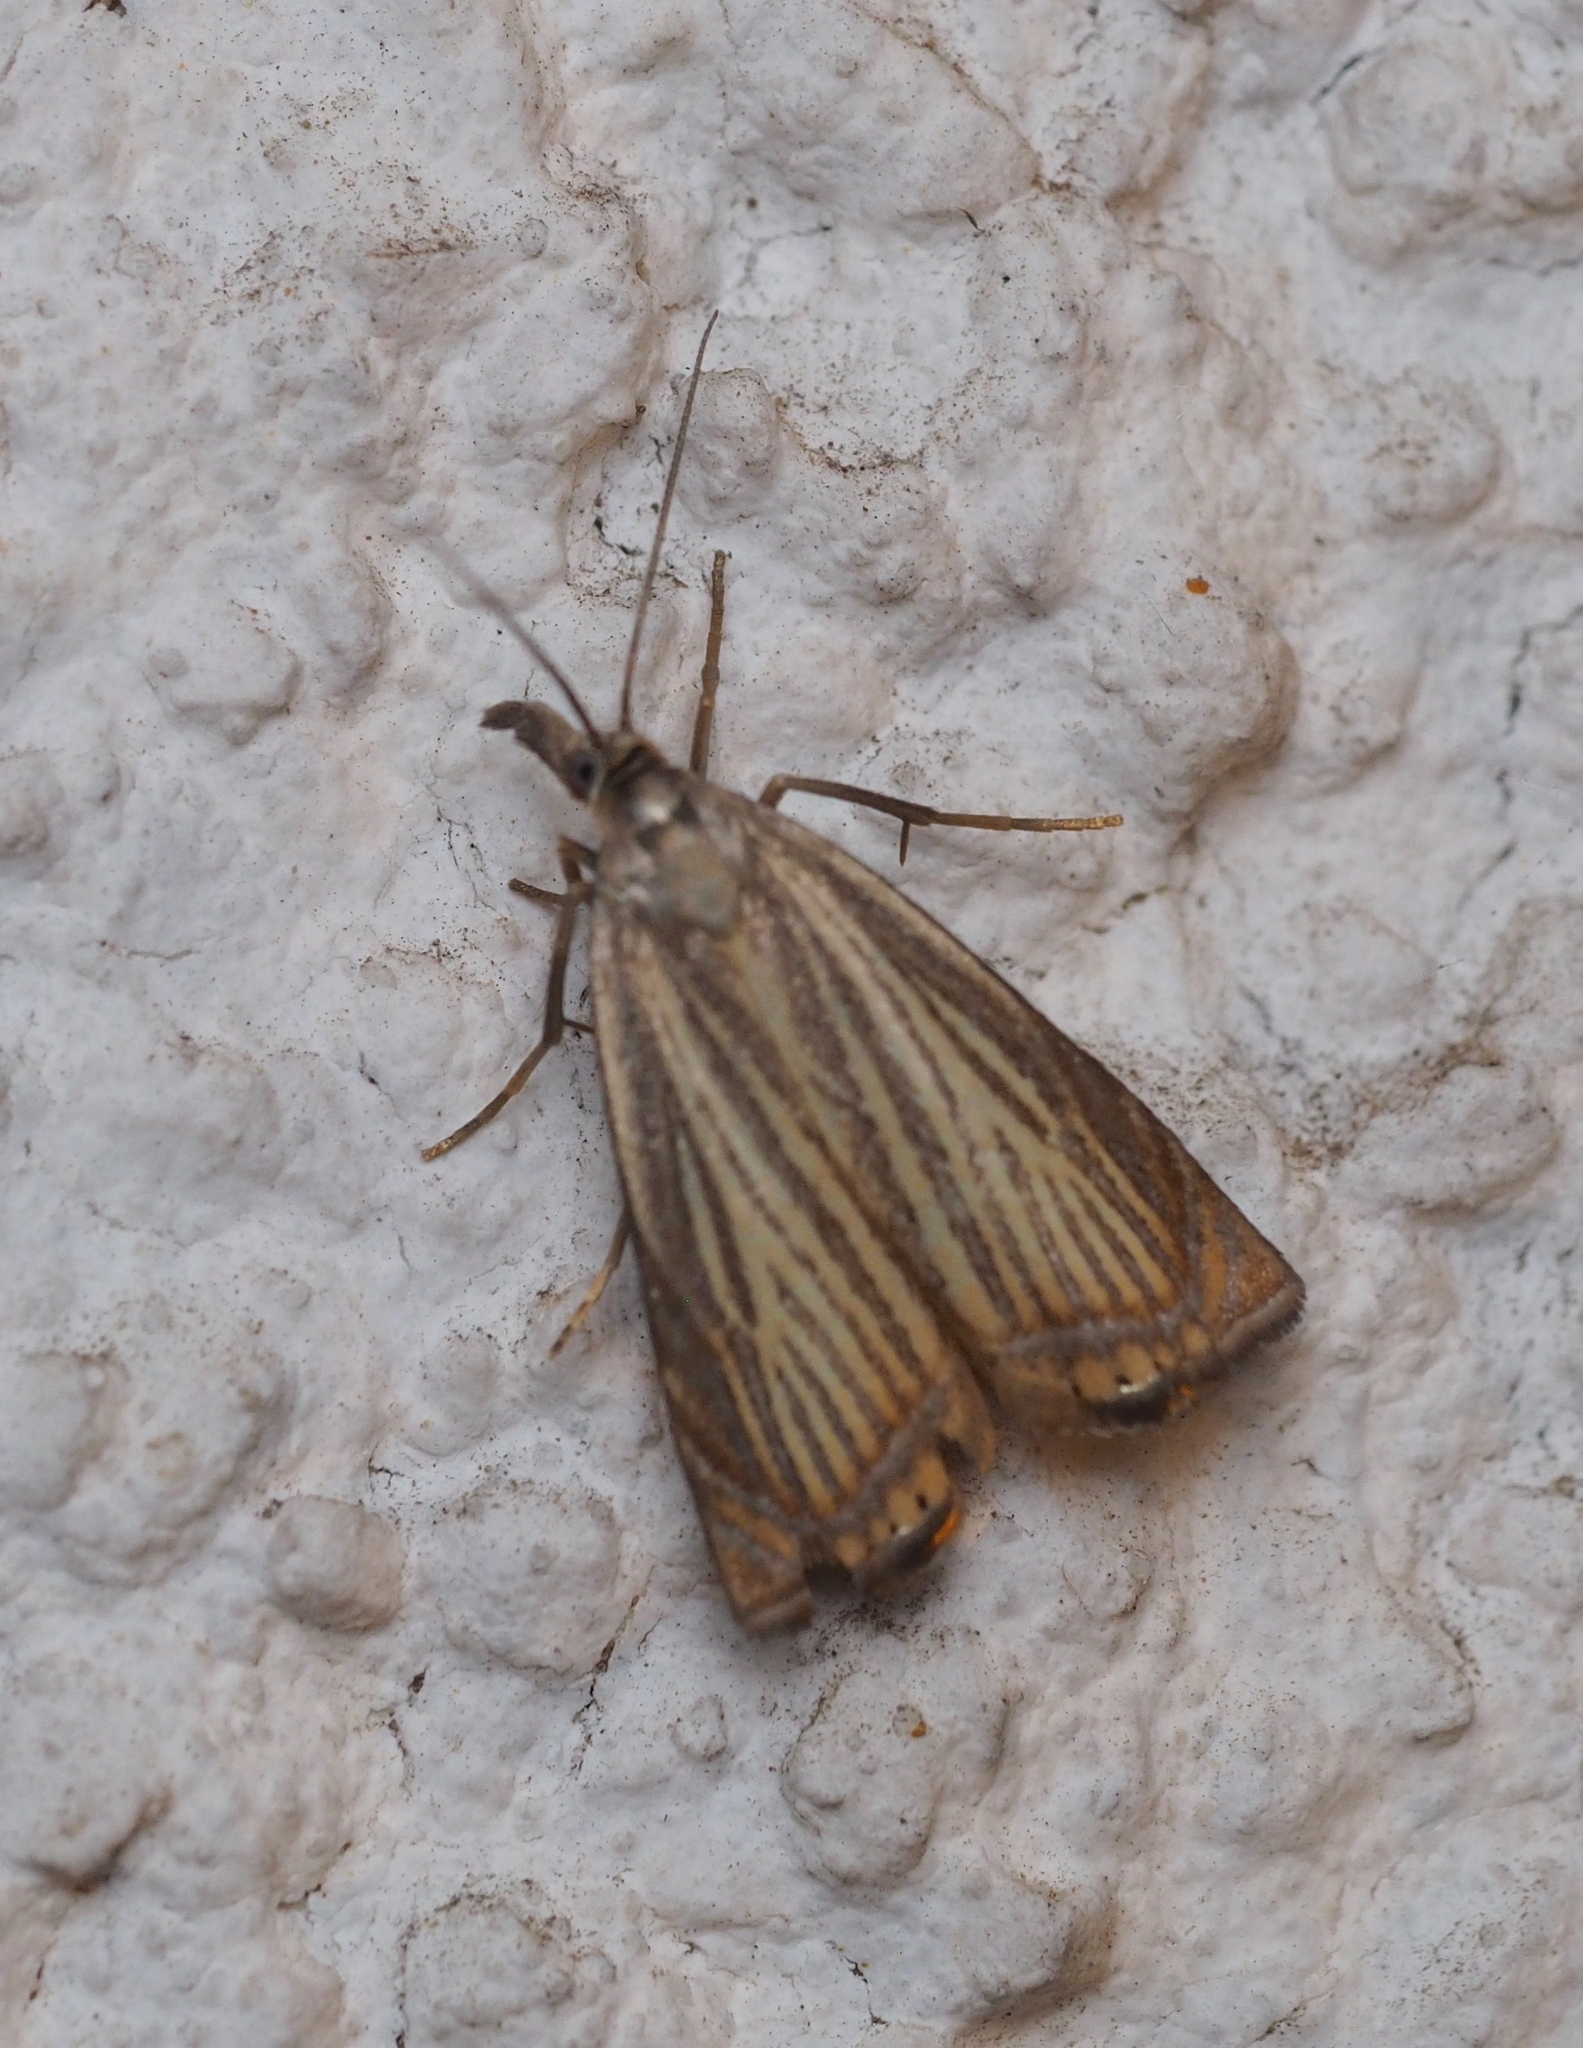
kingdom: Animalia
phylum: Arthropoda
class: Insecta
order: Lepidoptera
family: Crambidae
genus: Chrysoteuchia
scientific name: Chrysoteuchia culmella
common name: Garden grass-veneer
